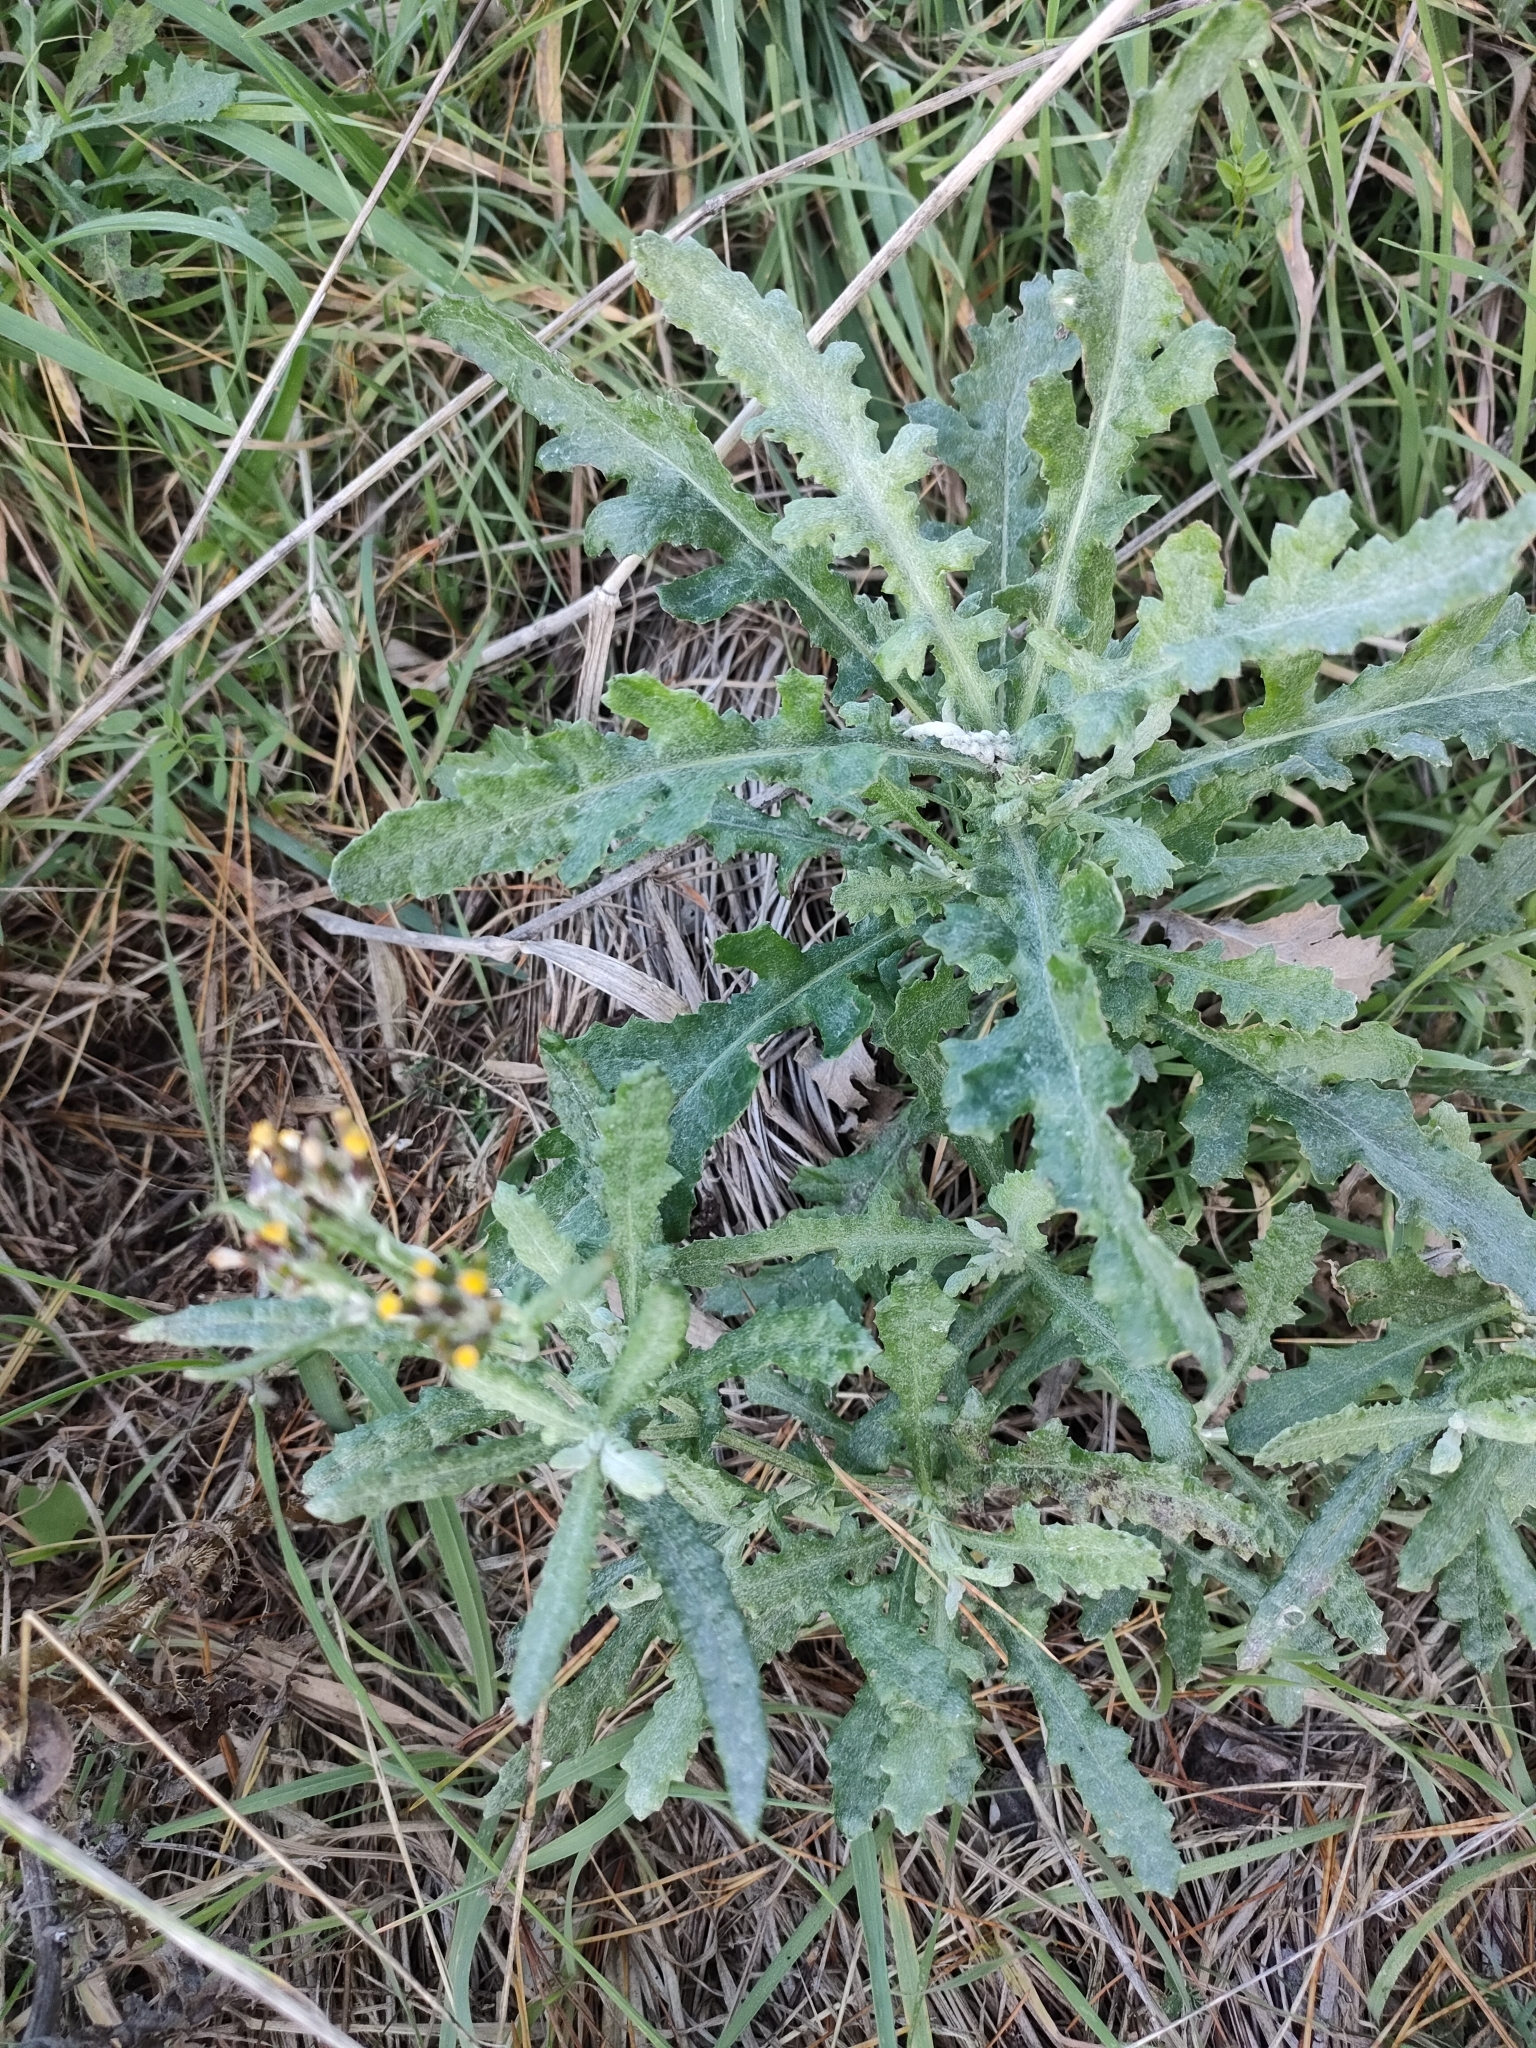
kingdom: Plantae
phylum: Tracheophyta
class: Magnoliopsida
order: Asterales
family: Asteraceae
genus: Senecio
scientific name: Senecio glomeratus
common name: Cutleaf burnweed
